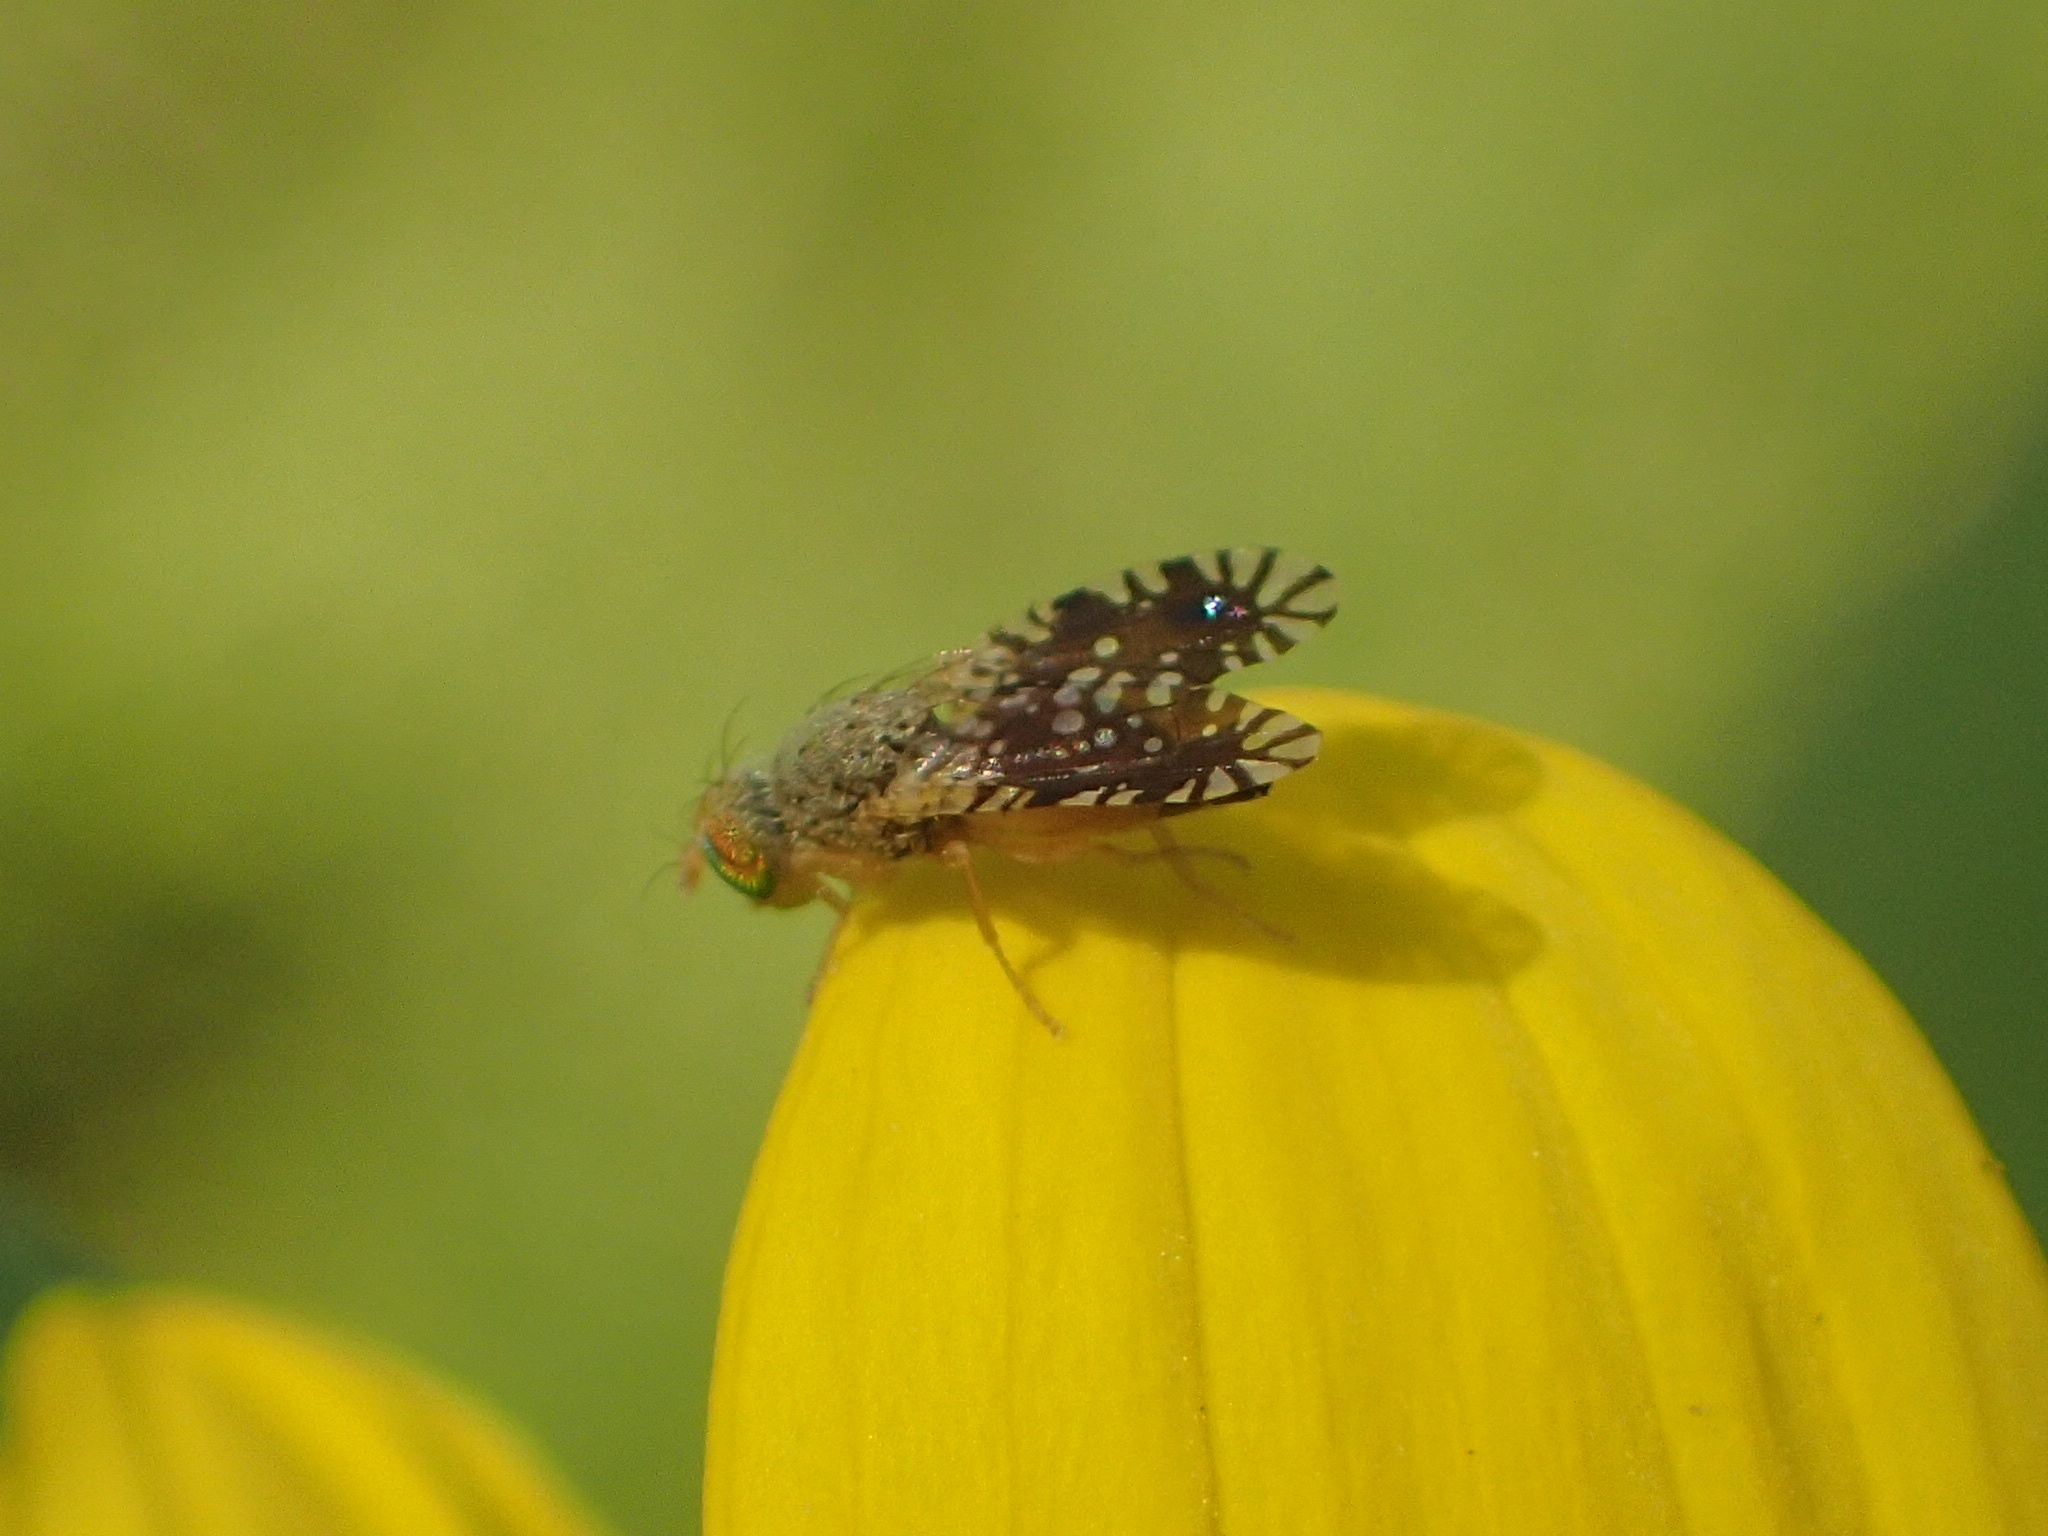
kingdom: Animalia
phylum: Arthropoda
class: Insecta
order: Diptera
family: Tephritidae
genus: Euaresta
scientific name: Euaresta bella
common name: Common ragweed fruit fly
